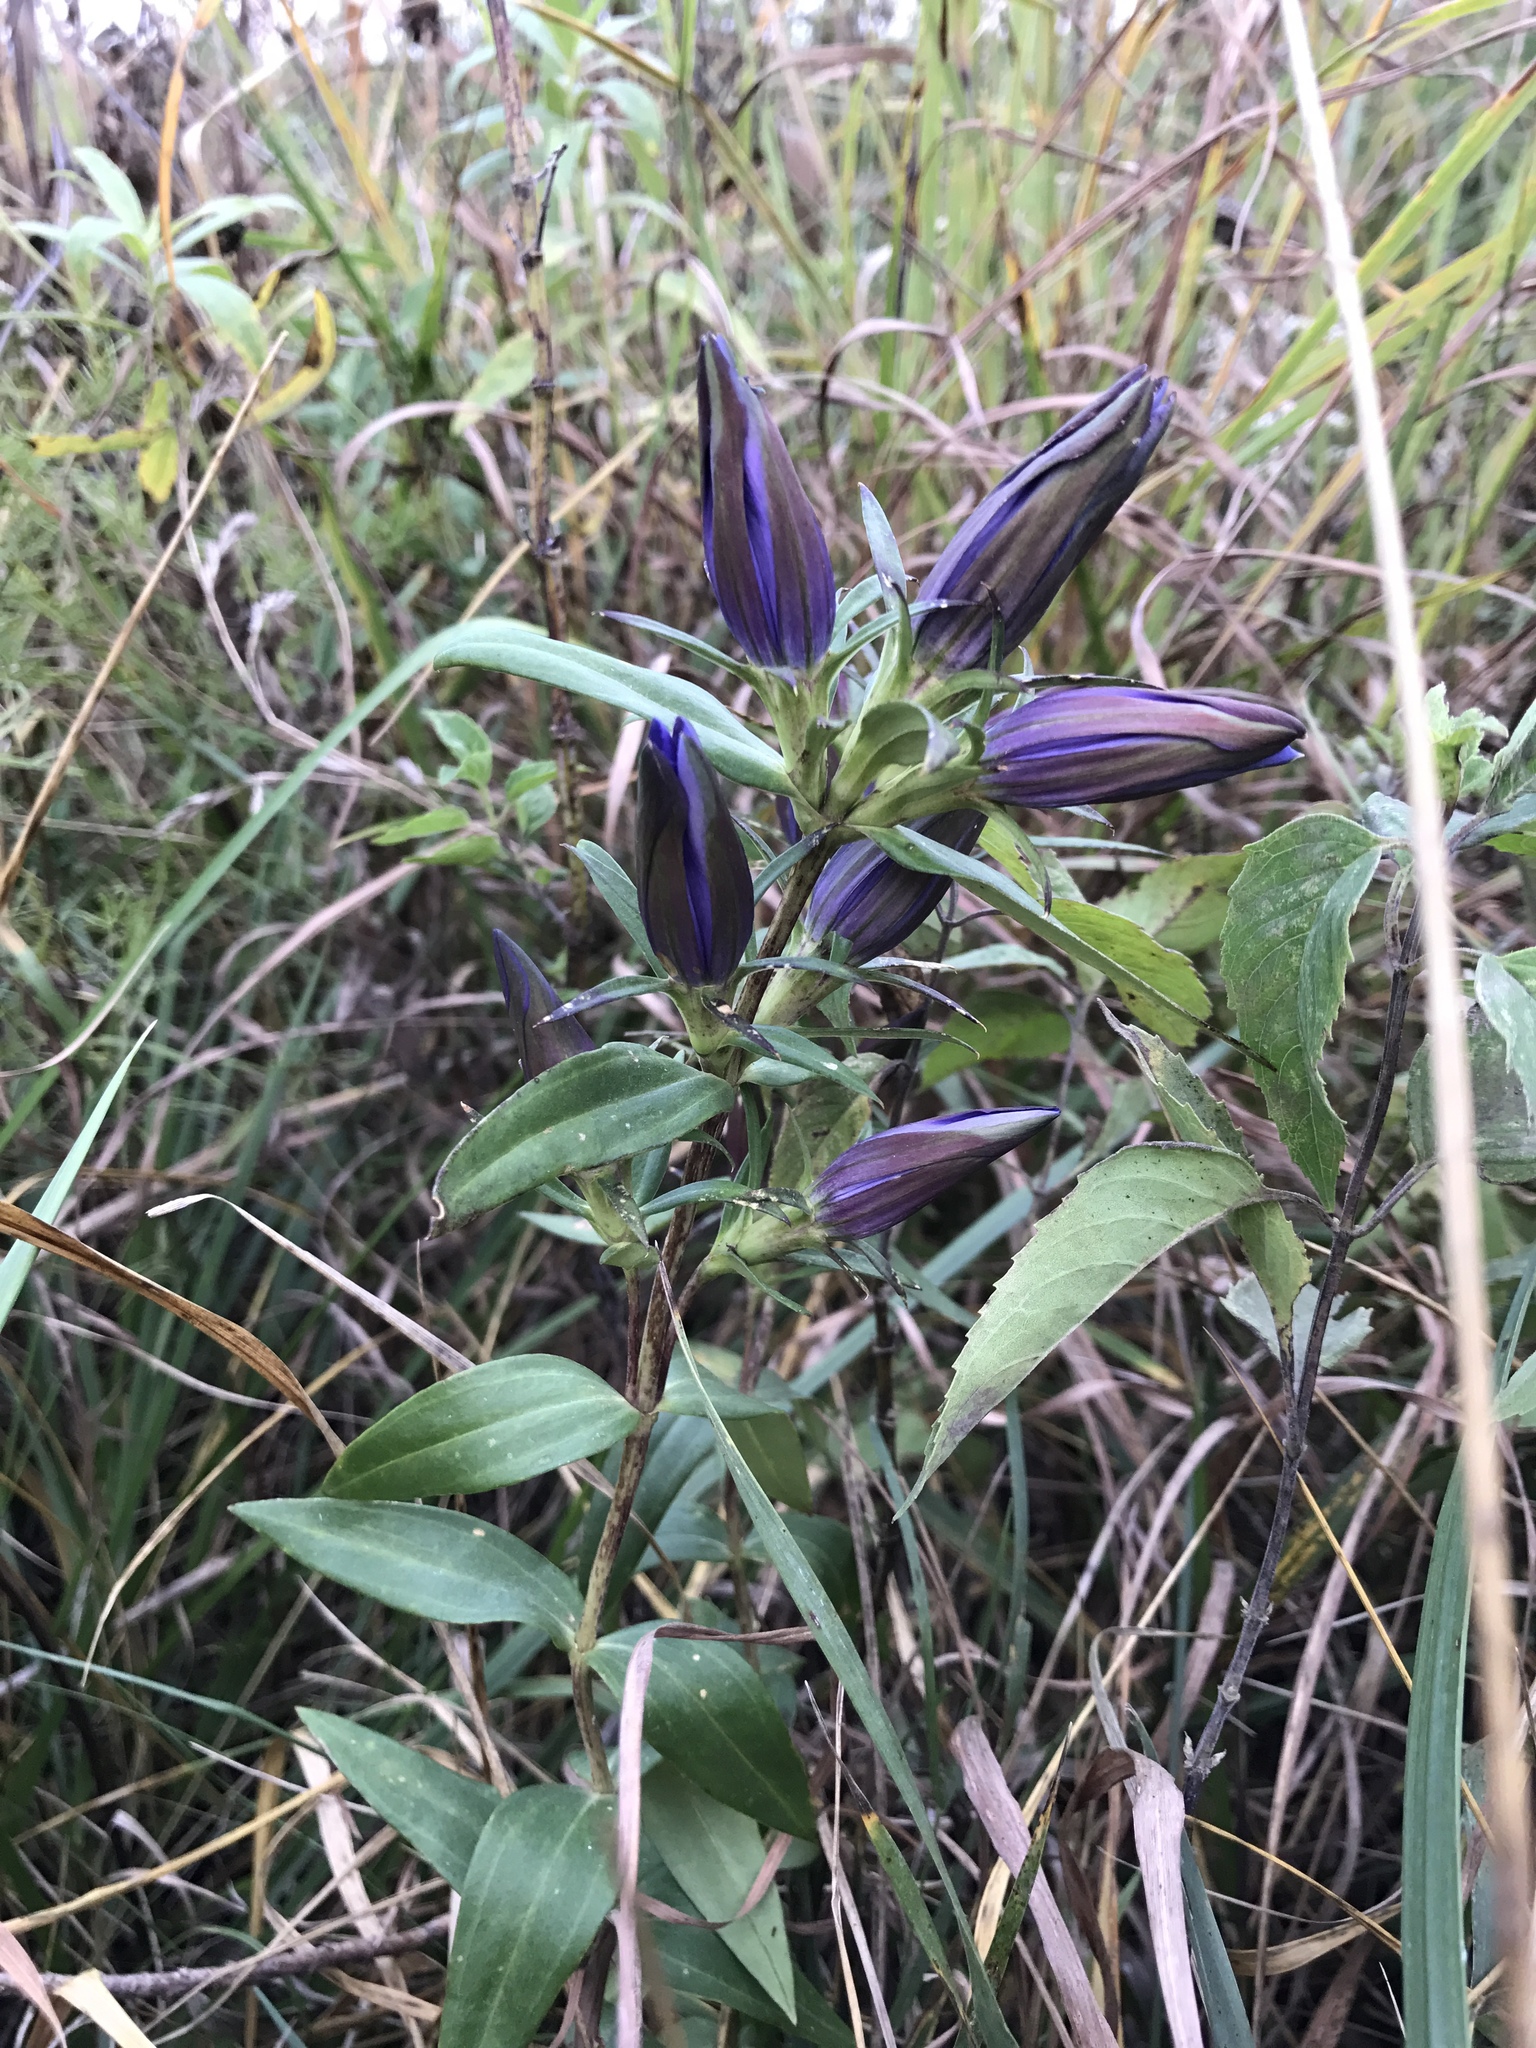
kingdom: Plantae
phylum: Tracheophyta
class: Magnoliopsida
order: Gentianales
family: Gentianaceae
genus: Gentiana
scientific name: Gentiana puberulenta
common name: Downy gentian
